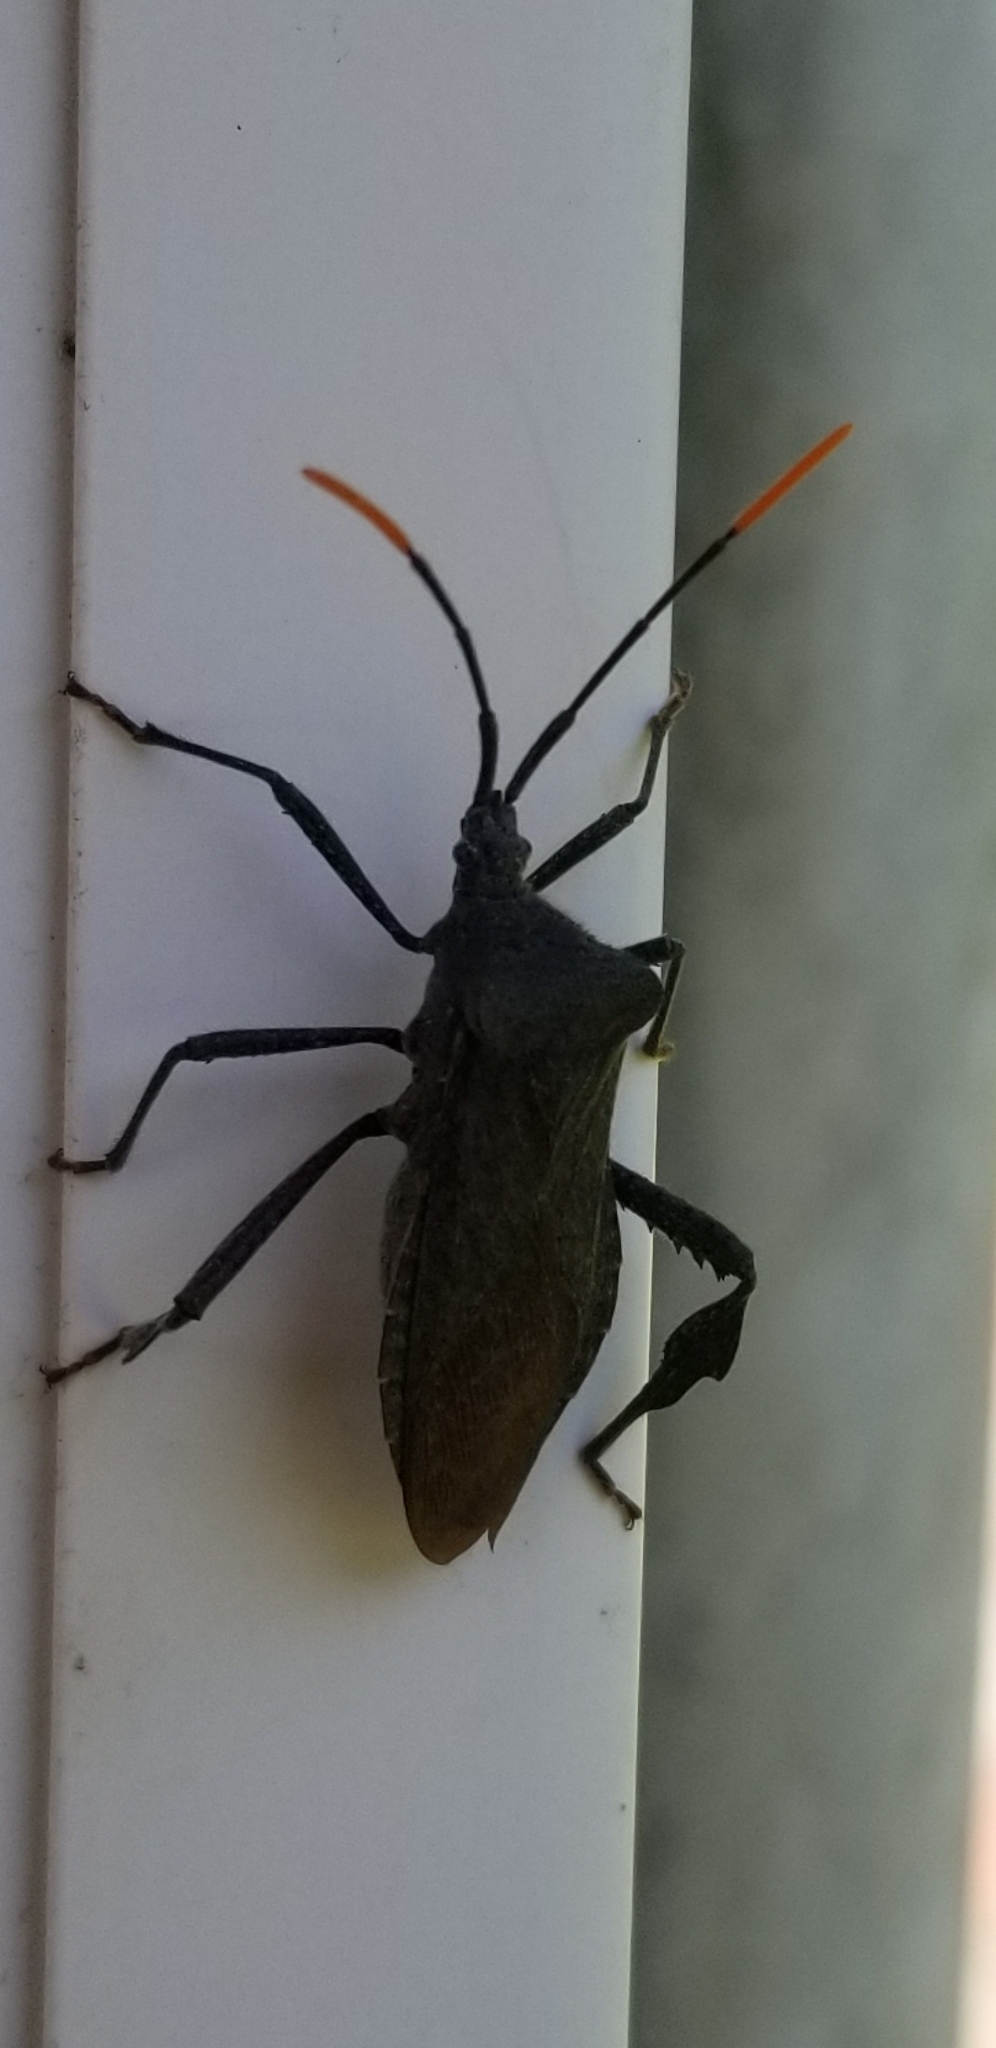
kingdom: Animalia
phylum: Arthropoda
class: Insecta
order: Hemiptera
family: Coreidae
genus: Acanthocephala
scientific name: Acanthocephala terminalis
